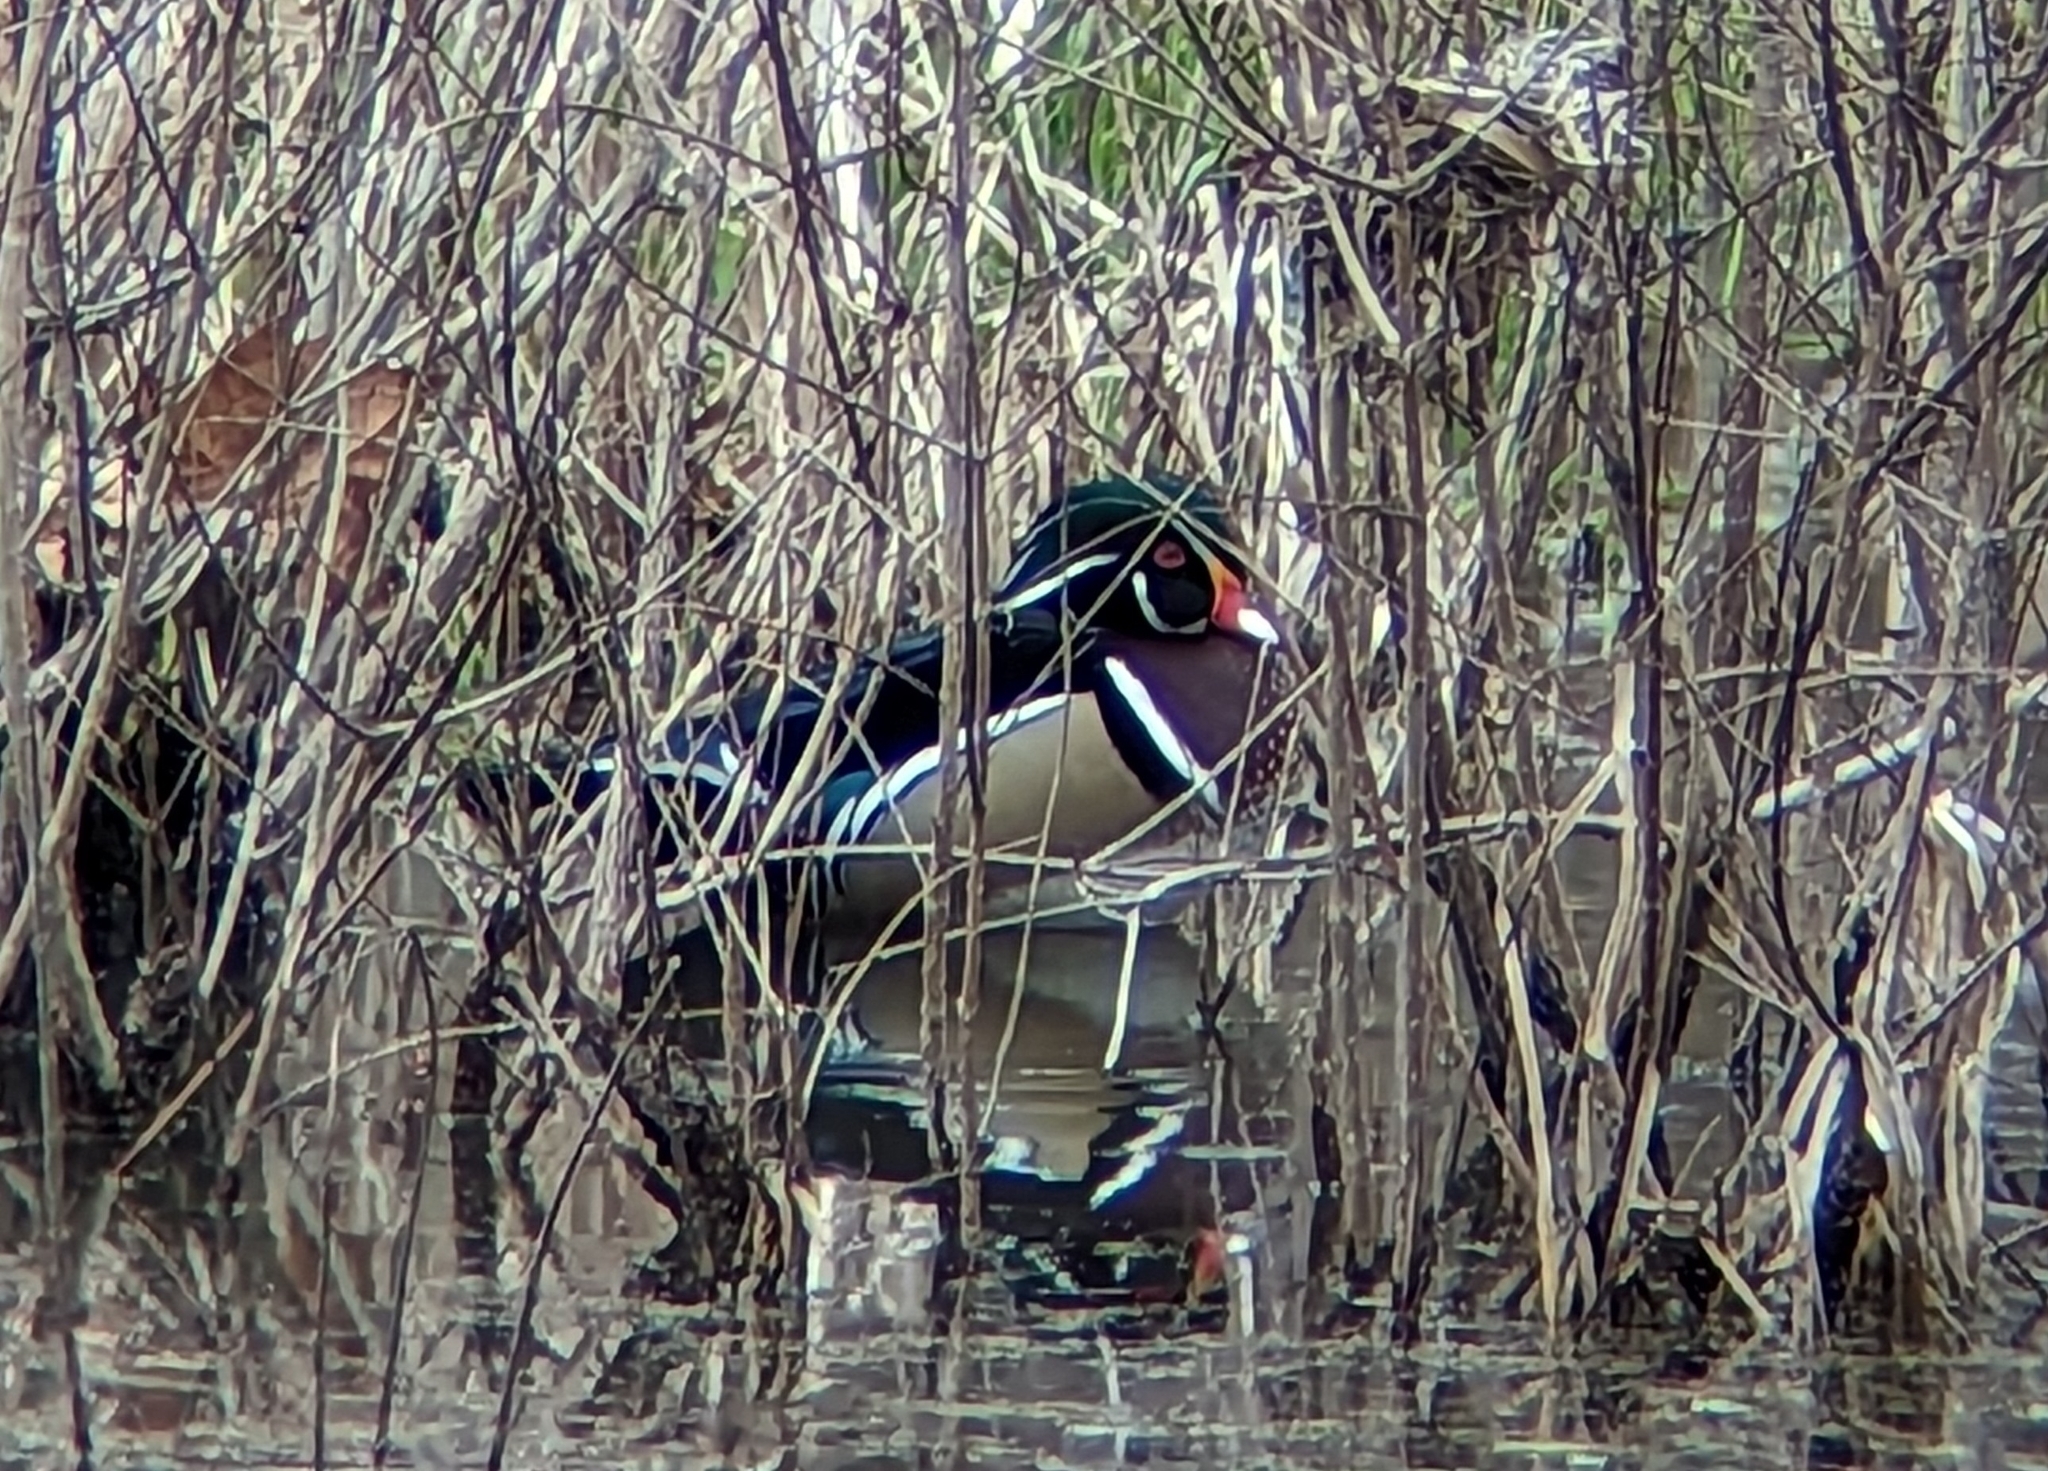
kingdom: Animalia
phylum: Chordata
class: Aves
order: Anseriformes
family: Anatidae
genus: Aix
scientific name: Aix sponsa
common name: Wood duck
